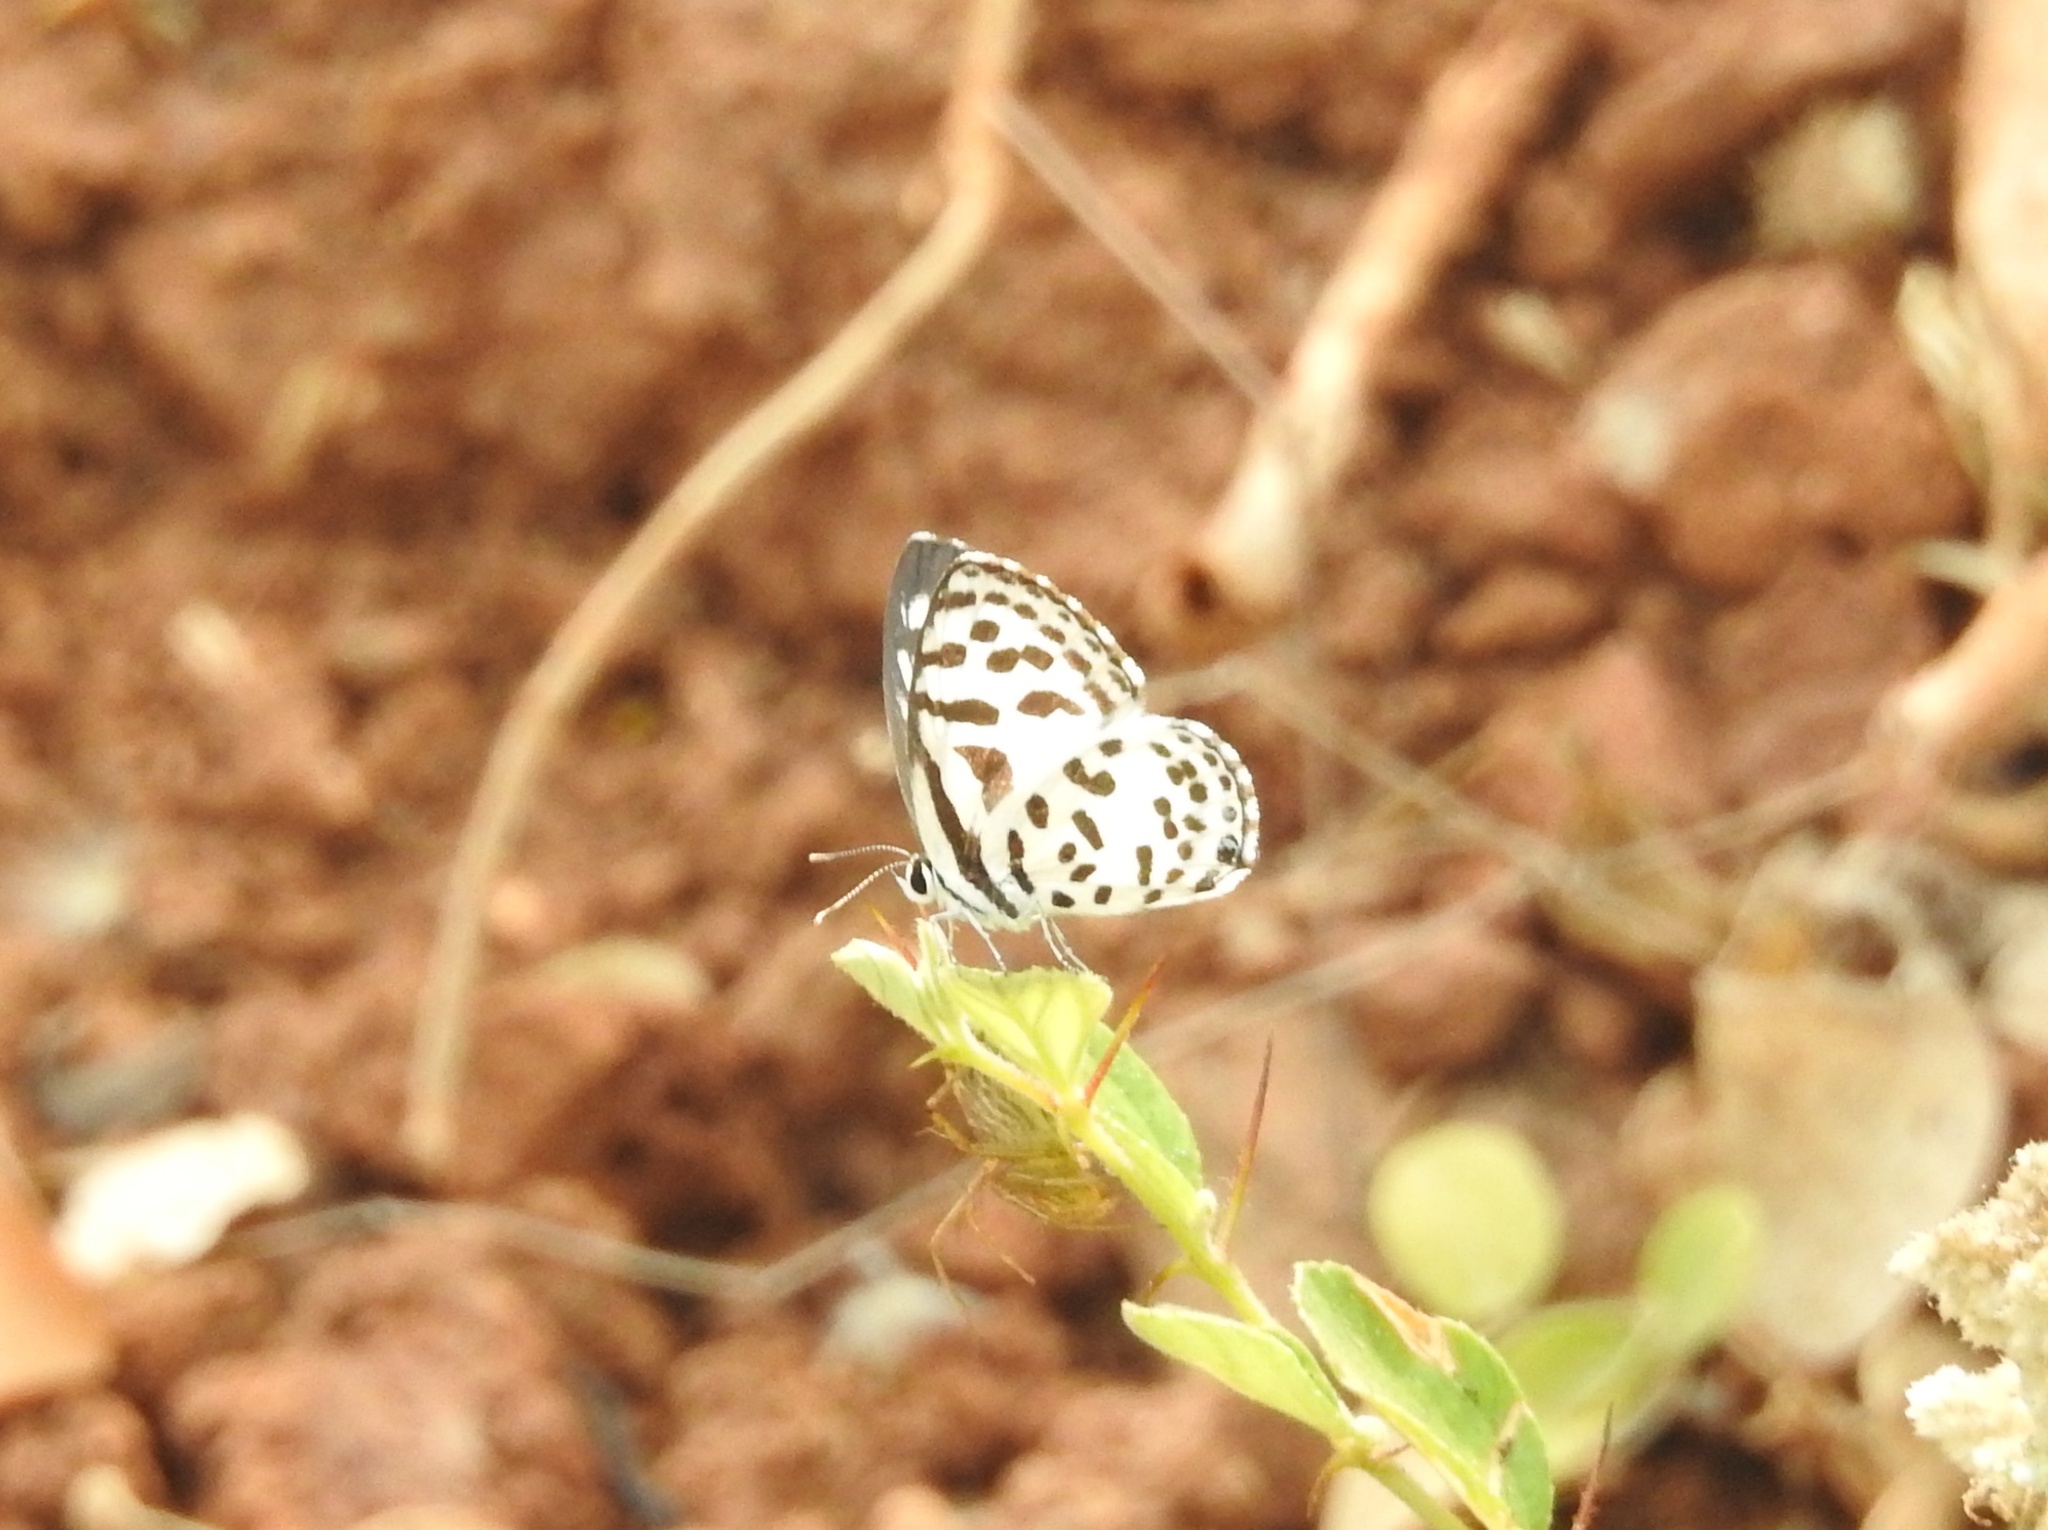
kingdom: Animalia
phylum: Arthropoda
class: Insecta
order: Lepidoptera
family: Lycaenidae
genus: Castalius
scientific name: Castalius rosimon
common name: Common pierrot
